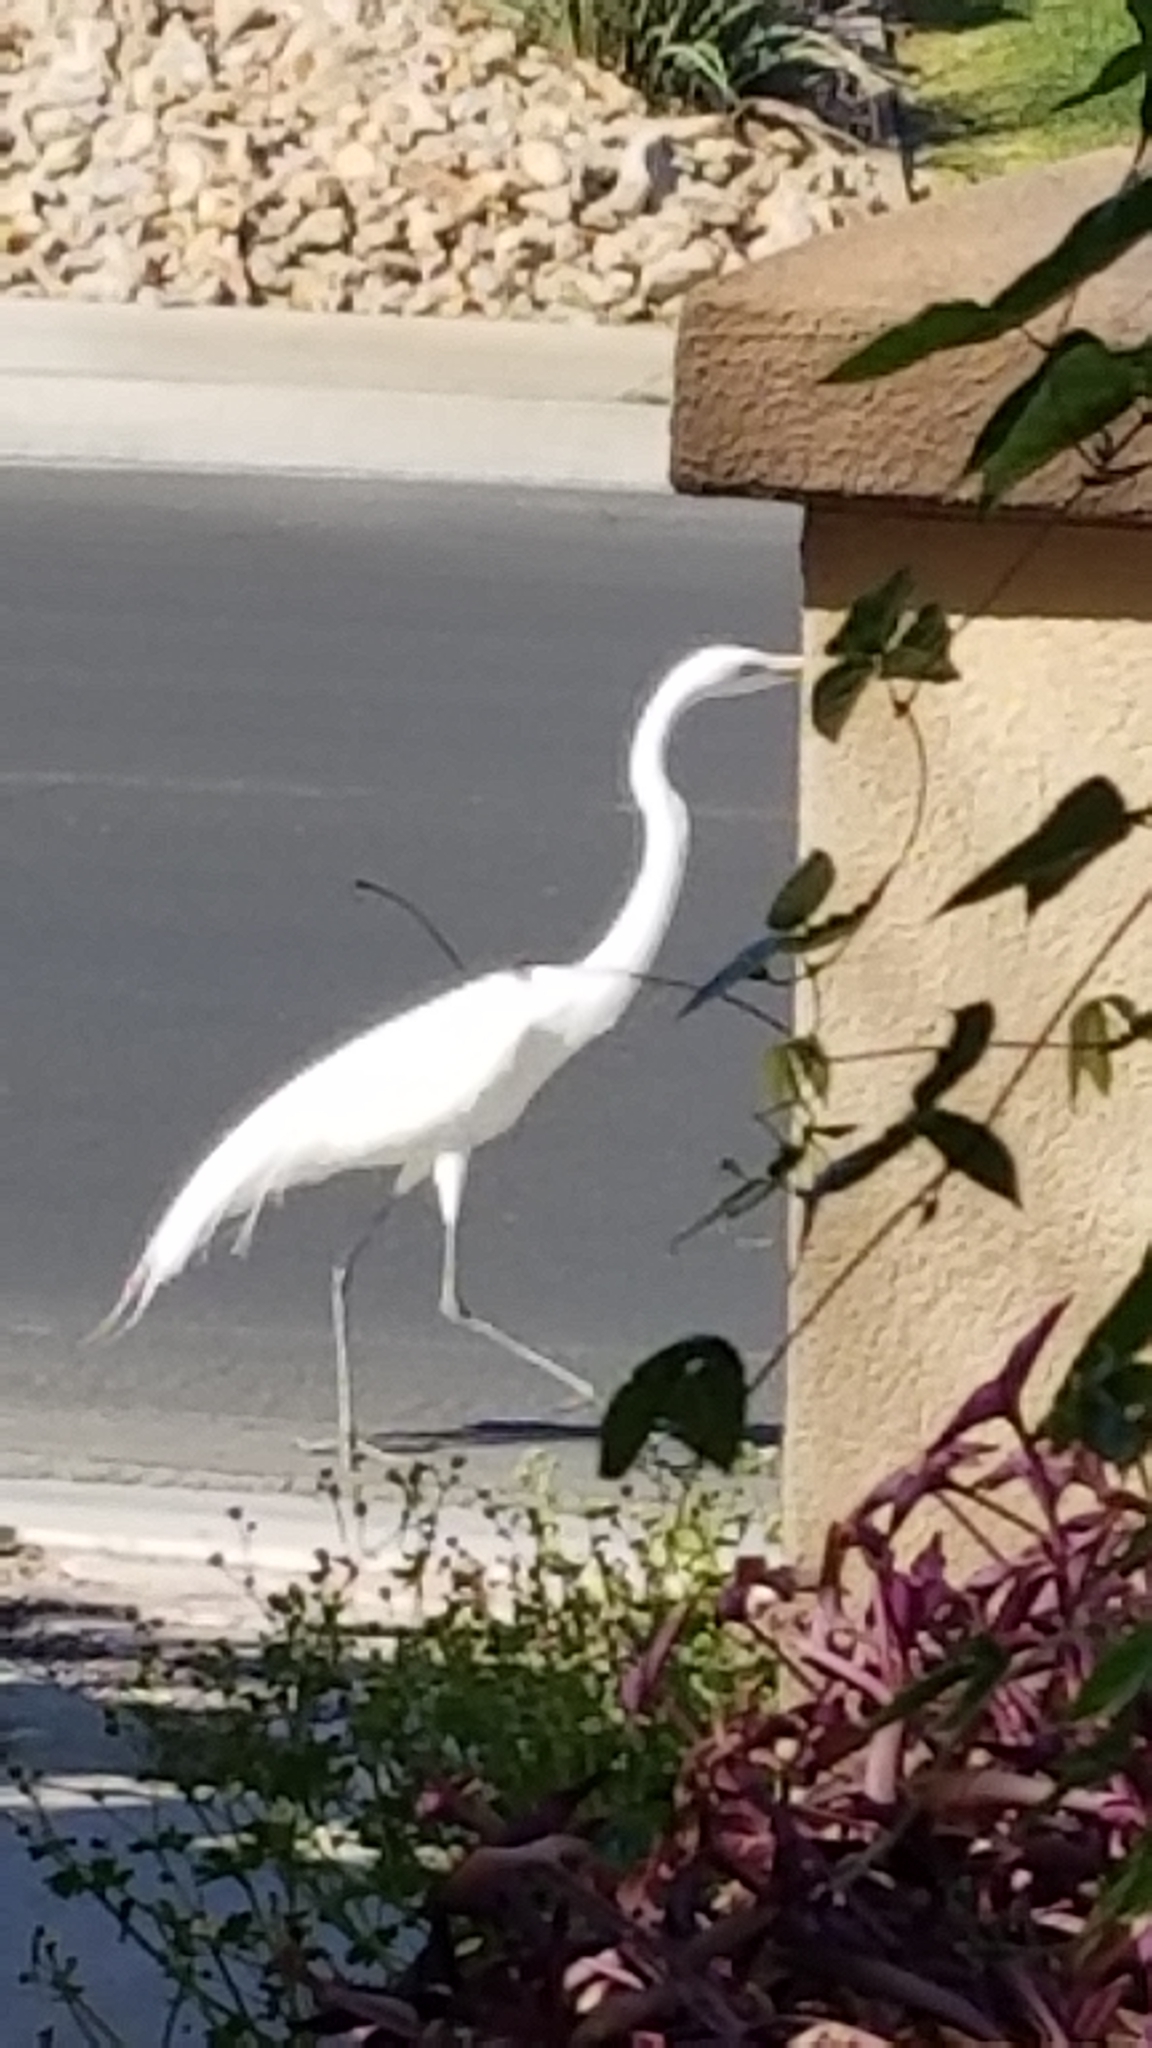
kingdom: Animalia
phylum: Chordata
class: Aves
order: Pelecaniformes
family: Ardeidae
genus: Ardea
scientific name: Ardea alba
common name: Great egret
